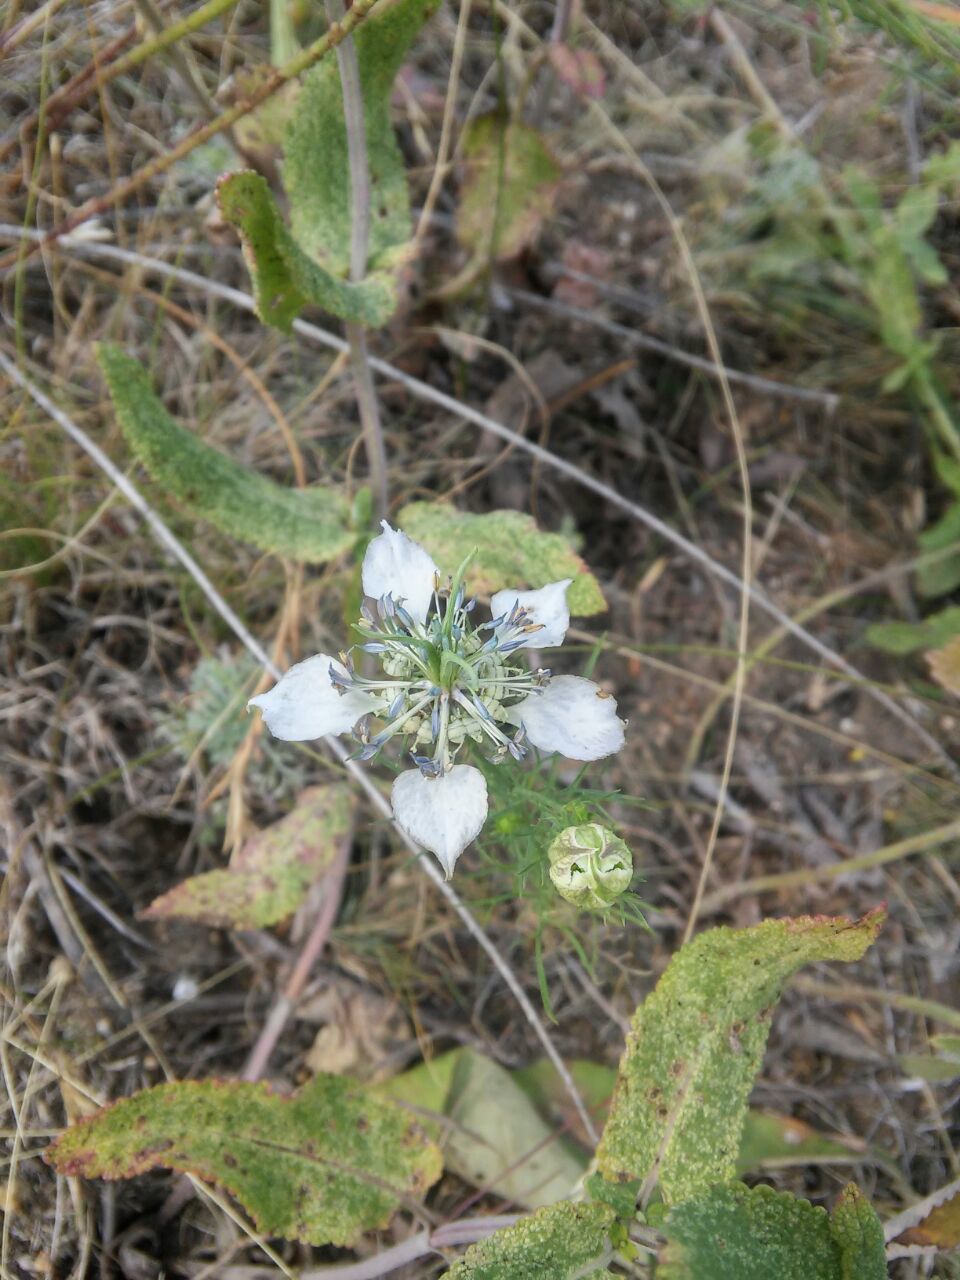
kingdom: Plantae
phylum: Tracheophyta
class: Magnoliopsida
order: Ranunculales
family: Ranunculaceae
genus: Nigella
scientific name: Nigella arvensis
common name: Wild fennel-flower
